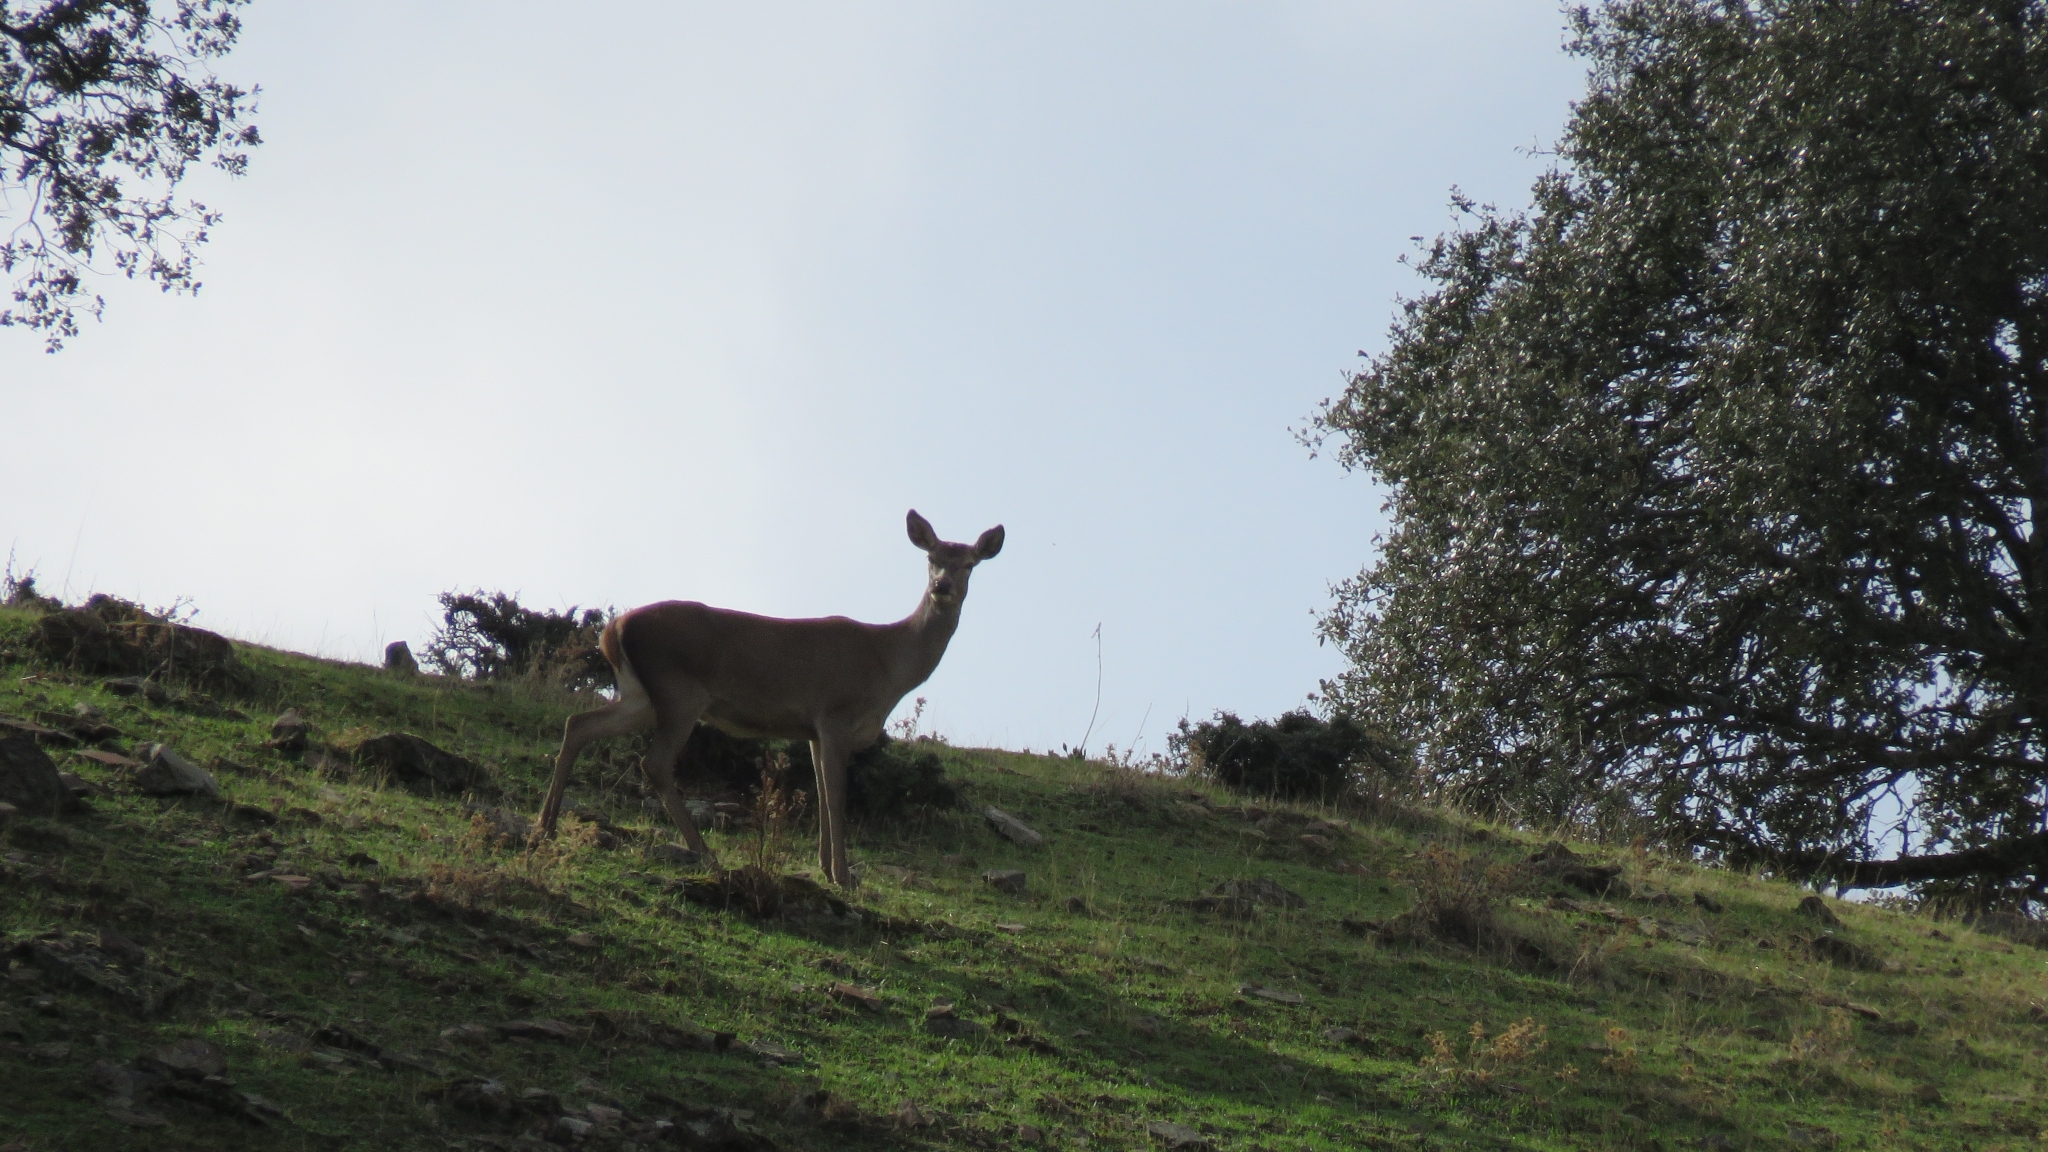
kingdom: Animalia
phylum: Chordata
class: Mammalia
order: Artiodactyla
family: Cervidae
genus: Cervus
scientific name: Cervus elaphus
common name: Red deer
